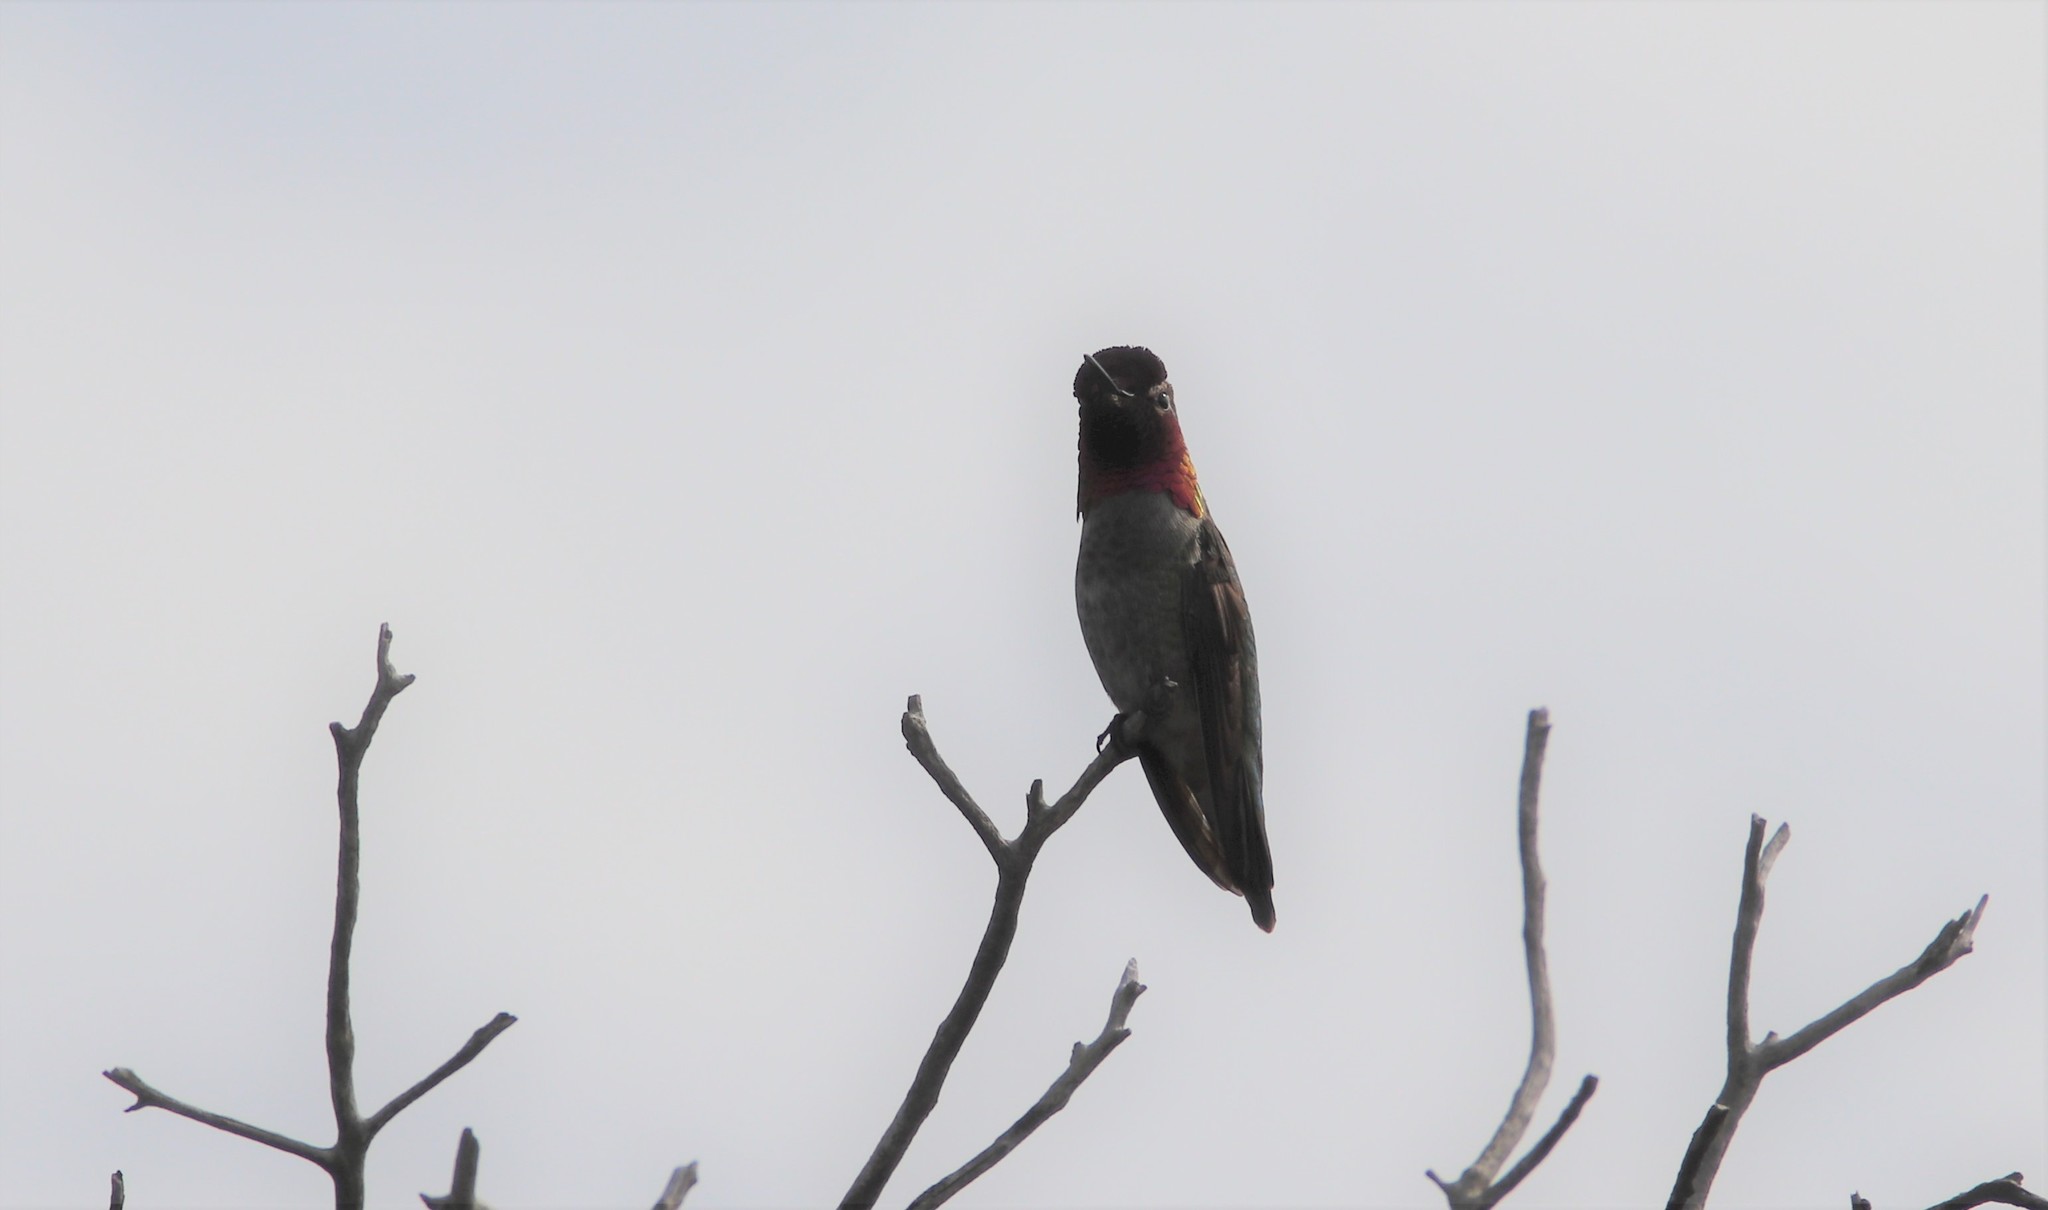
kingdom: Animalia
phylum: Chordata
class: Aves
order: Apodiformes
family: Trochilidae
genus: Calypte
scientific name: Calypte anna
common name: Anna's hummingbird
